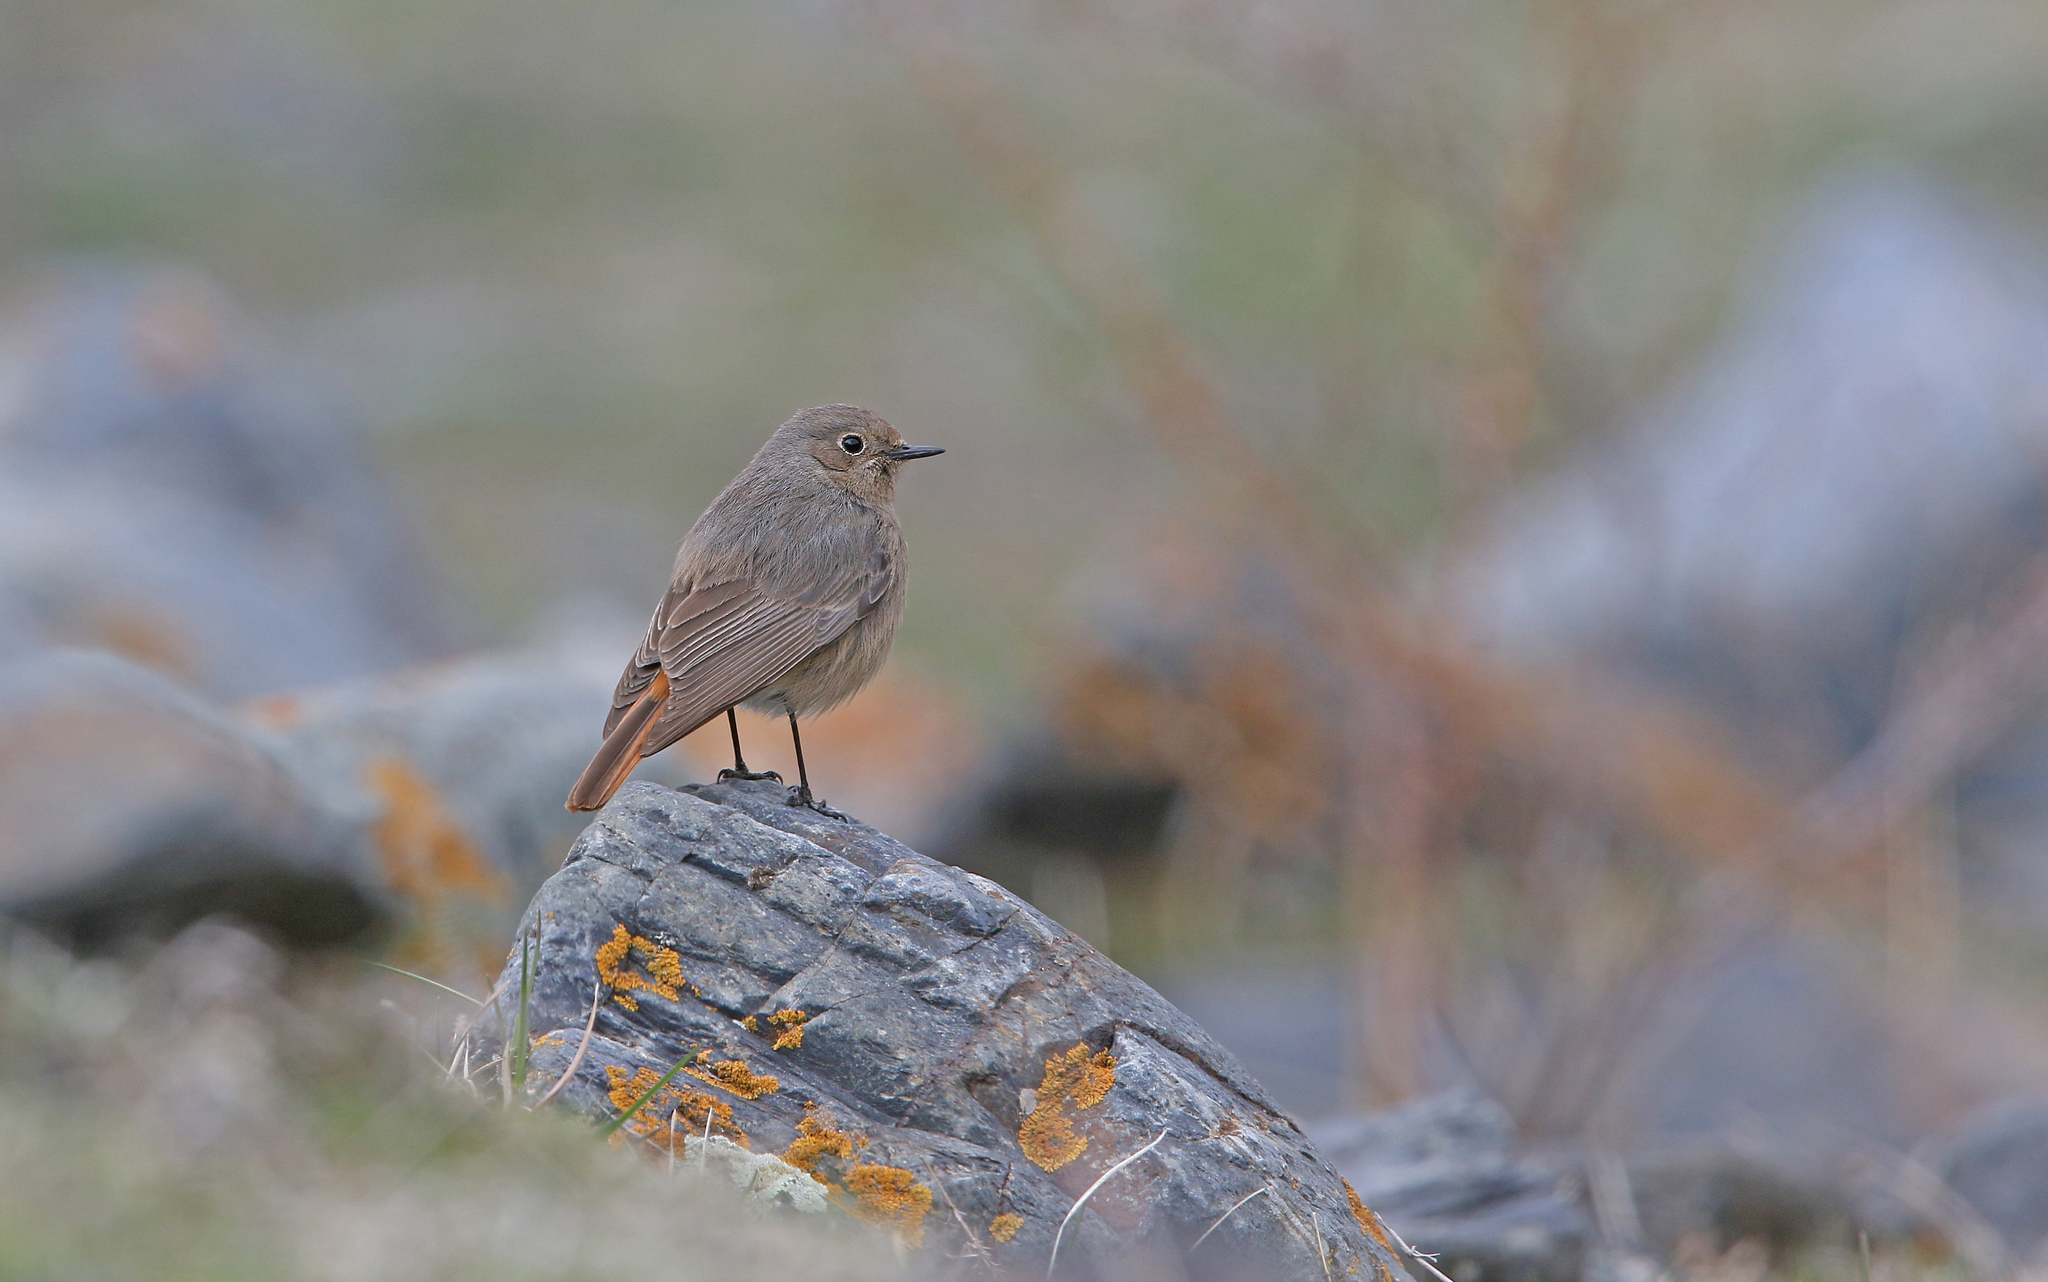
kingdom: Animalia
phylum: Chordata
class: Aves
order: Passeriformes
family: Muscicapidae
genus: Phoenicurus
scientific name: Phoenicurus ochruros
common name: Black redstart
